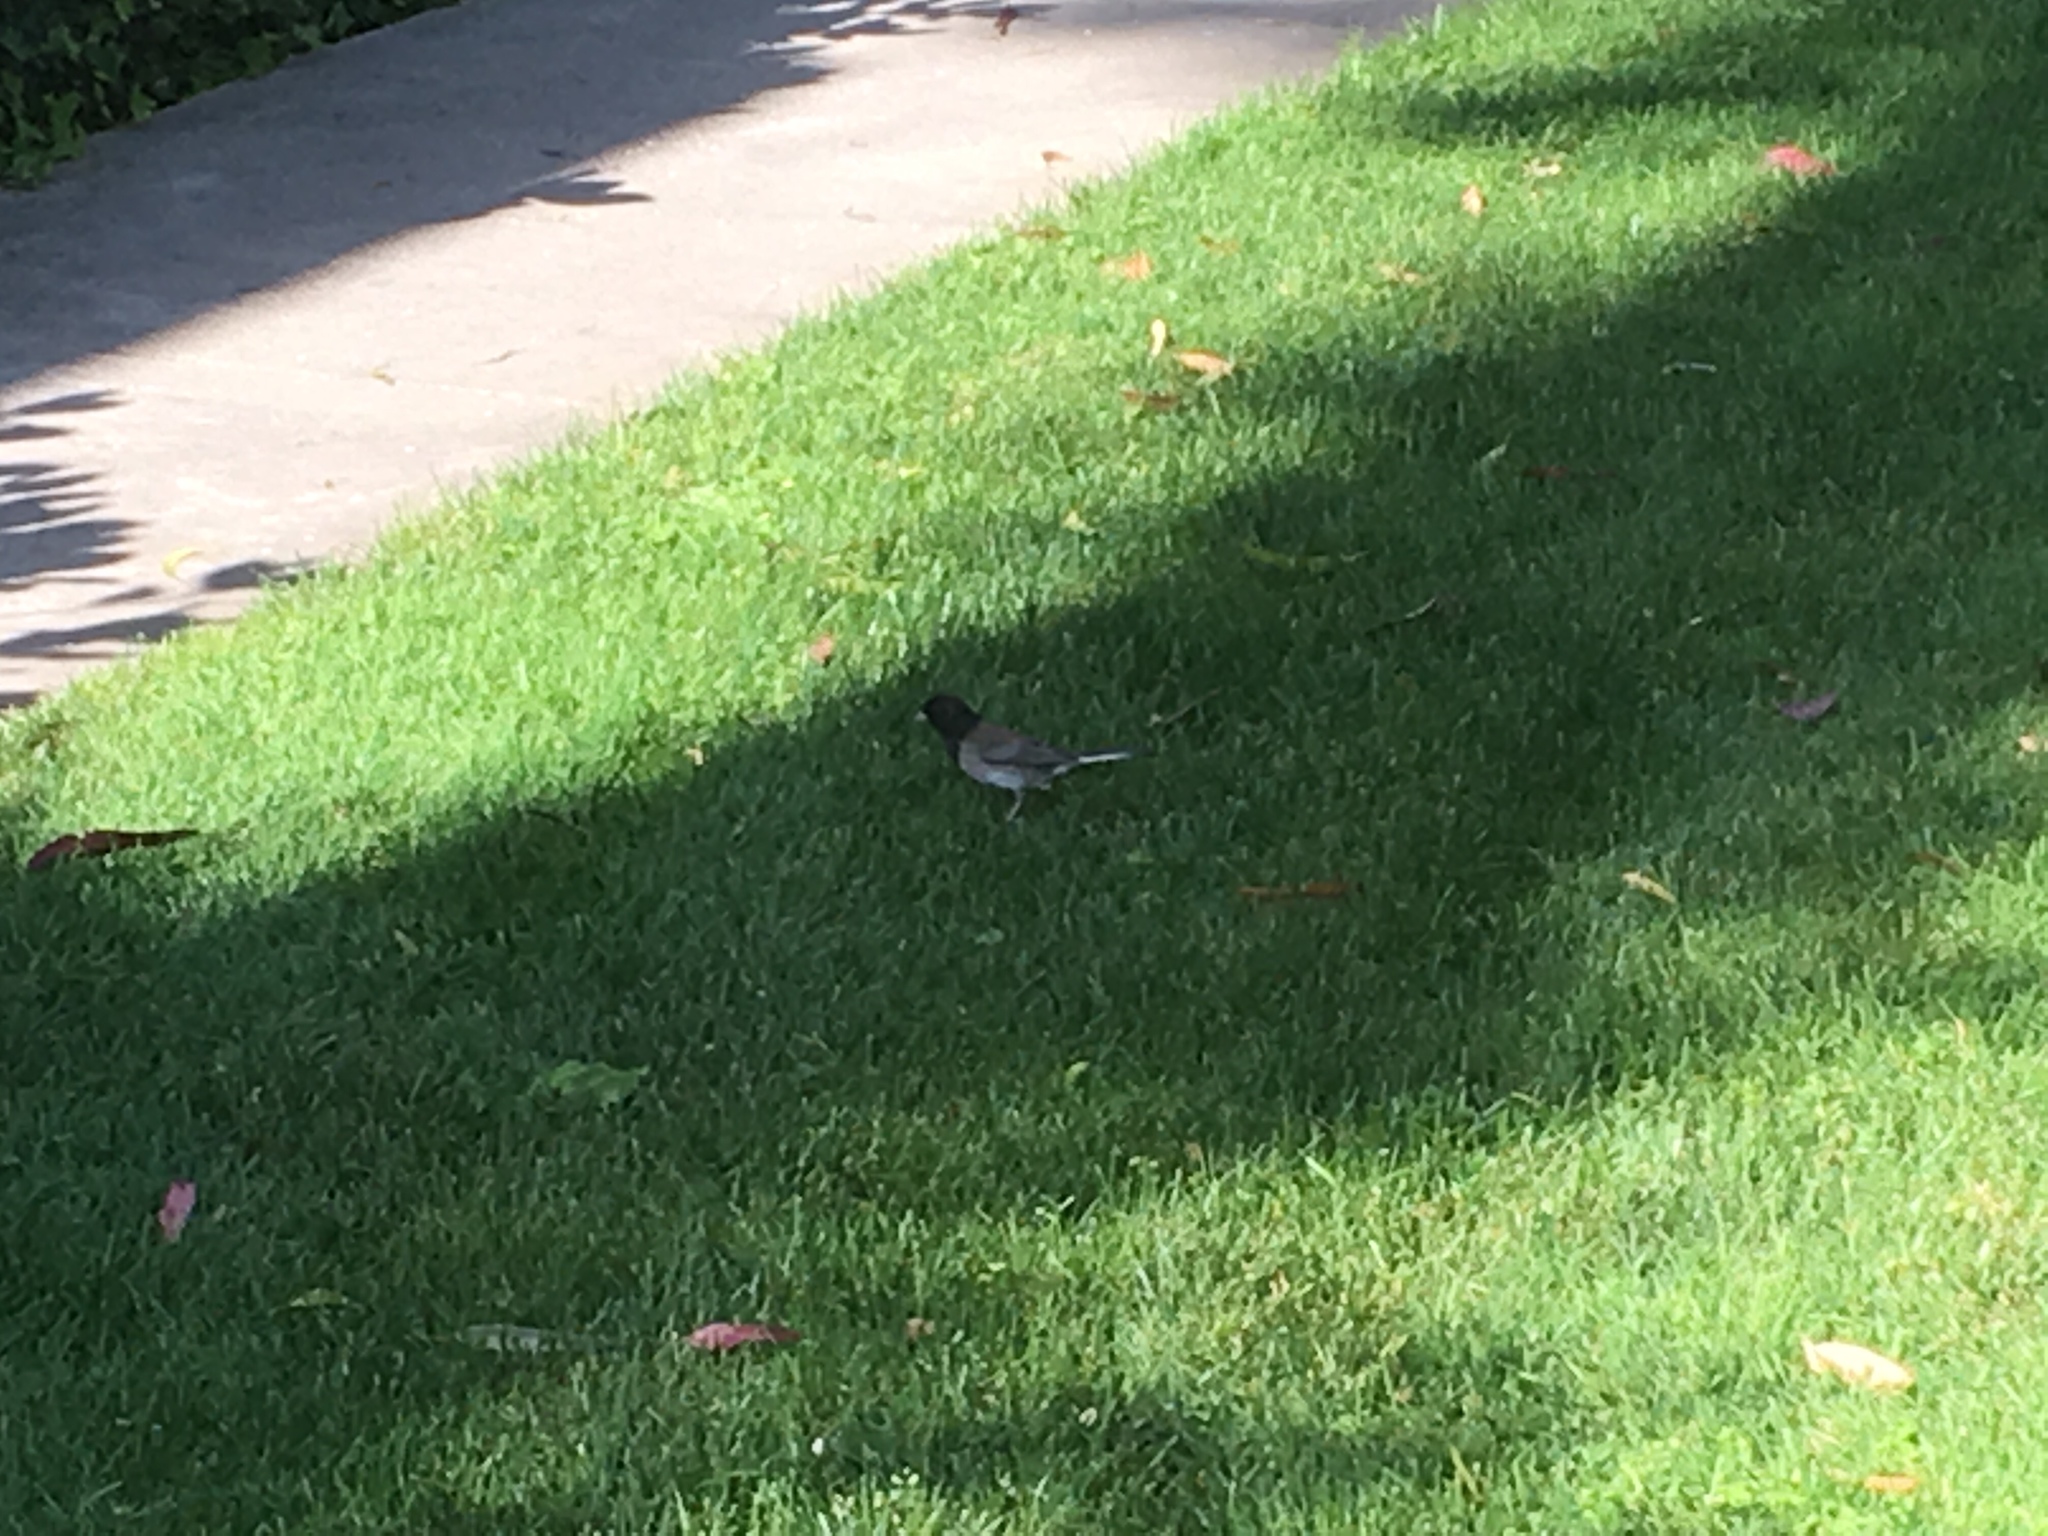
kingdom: Animalia
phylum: Chordata
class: Aves
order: Passeriformes
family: Passerellidae
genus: Junco
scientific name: Junco hyemalis
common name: Dark-eyed junco
